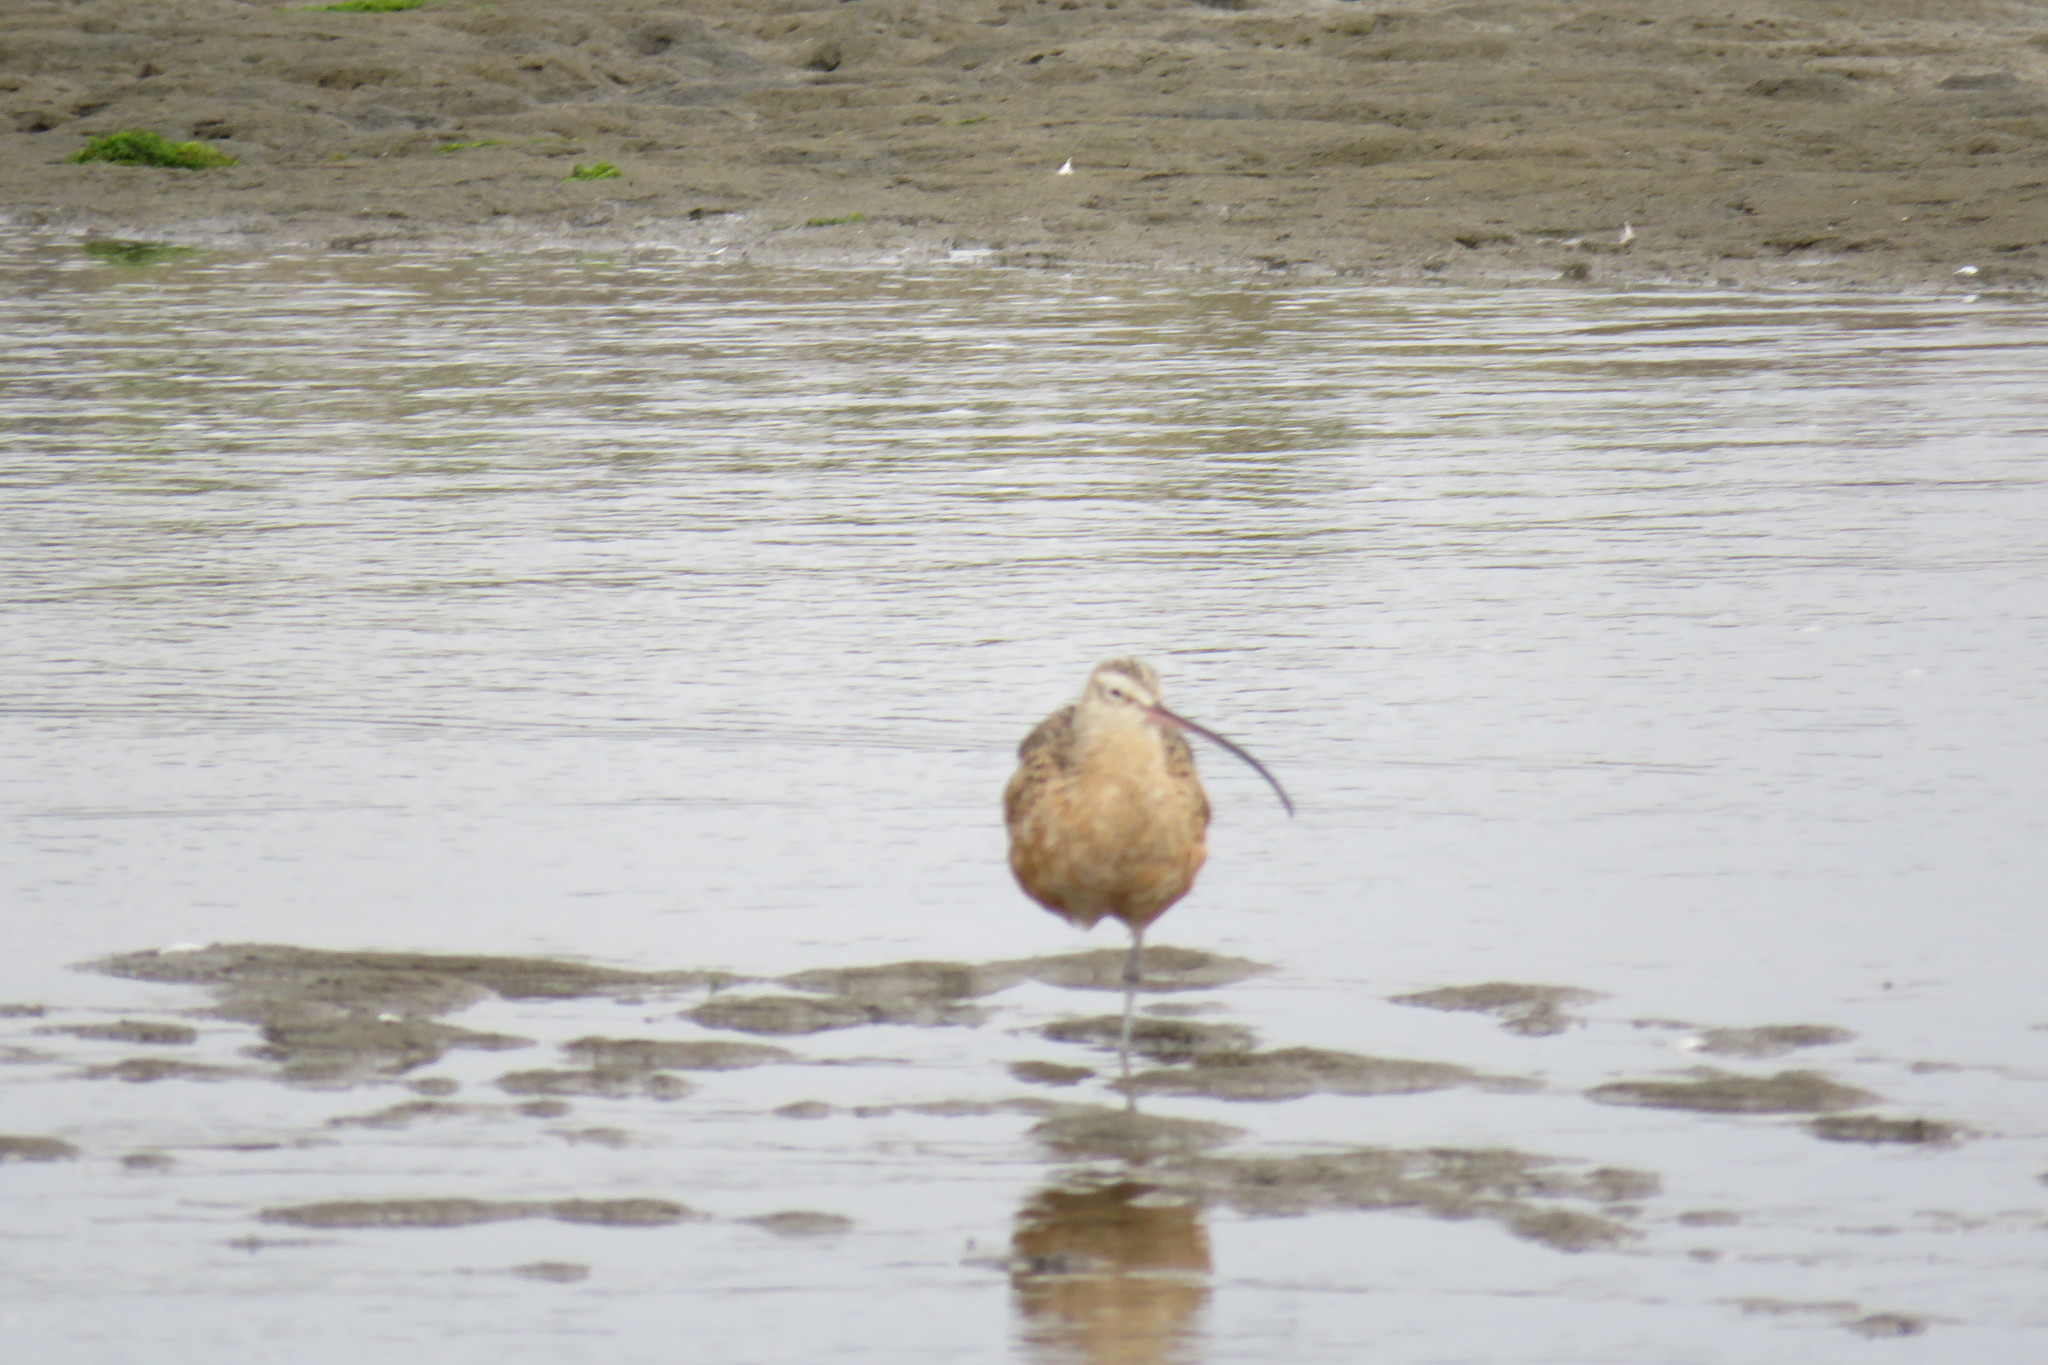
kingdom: Animalia
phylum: Chordata
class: Aves
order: Charadriiformes
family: Scolopacidae
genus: Numenius
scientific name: Numenius americanus
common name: Long-billed curlew
